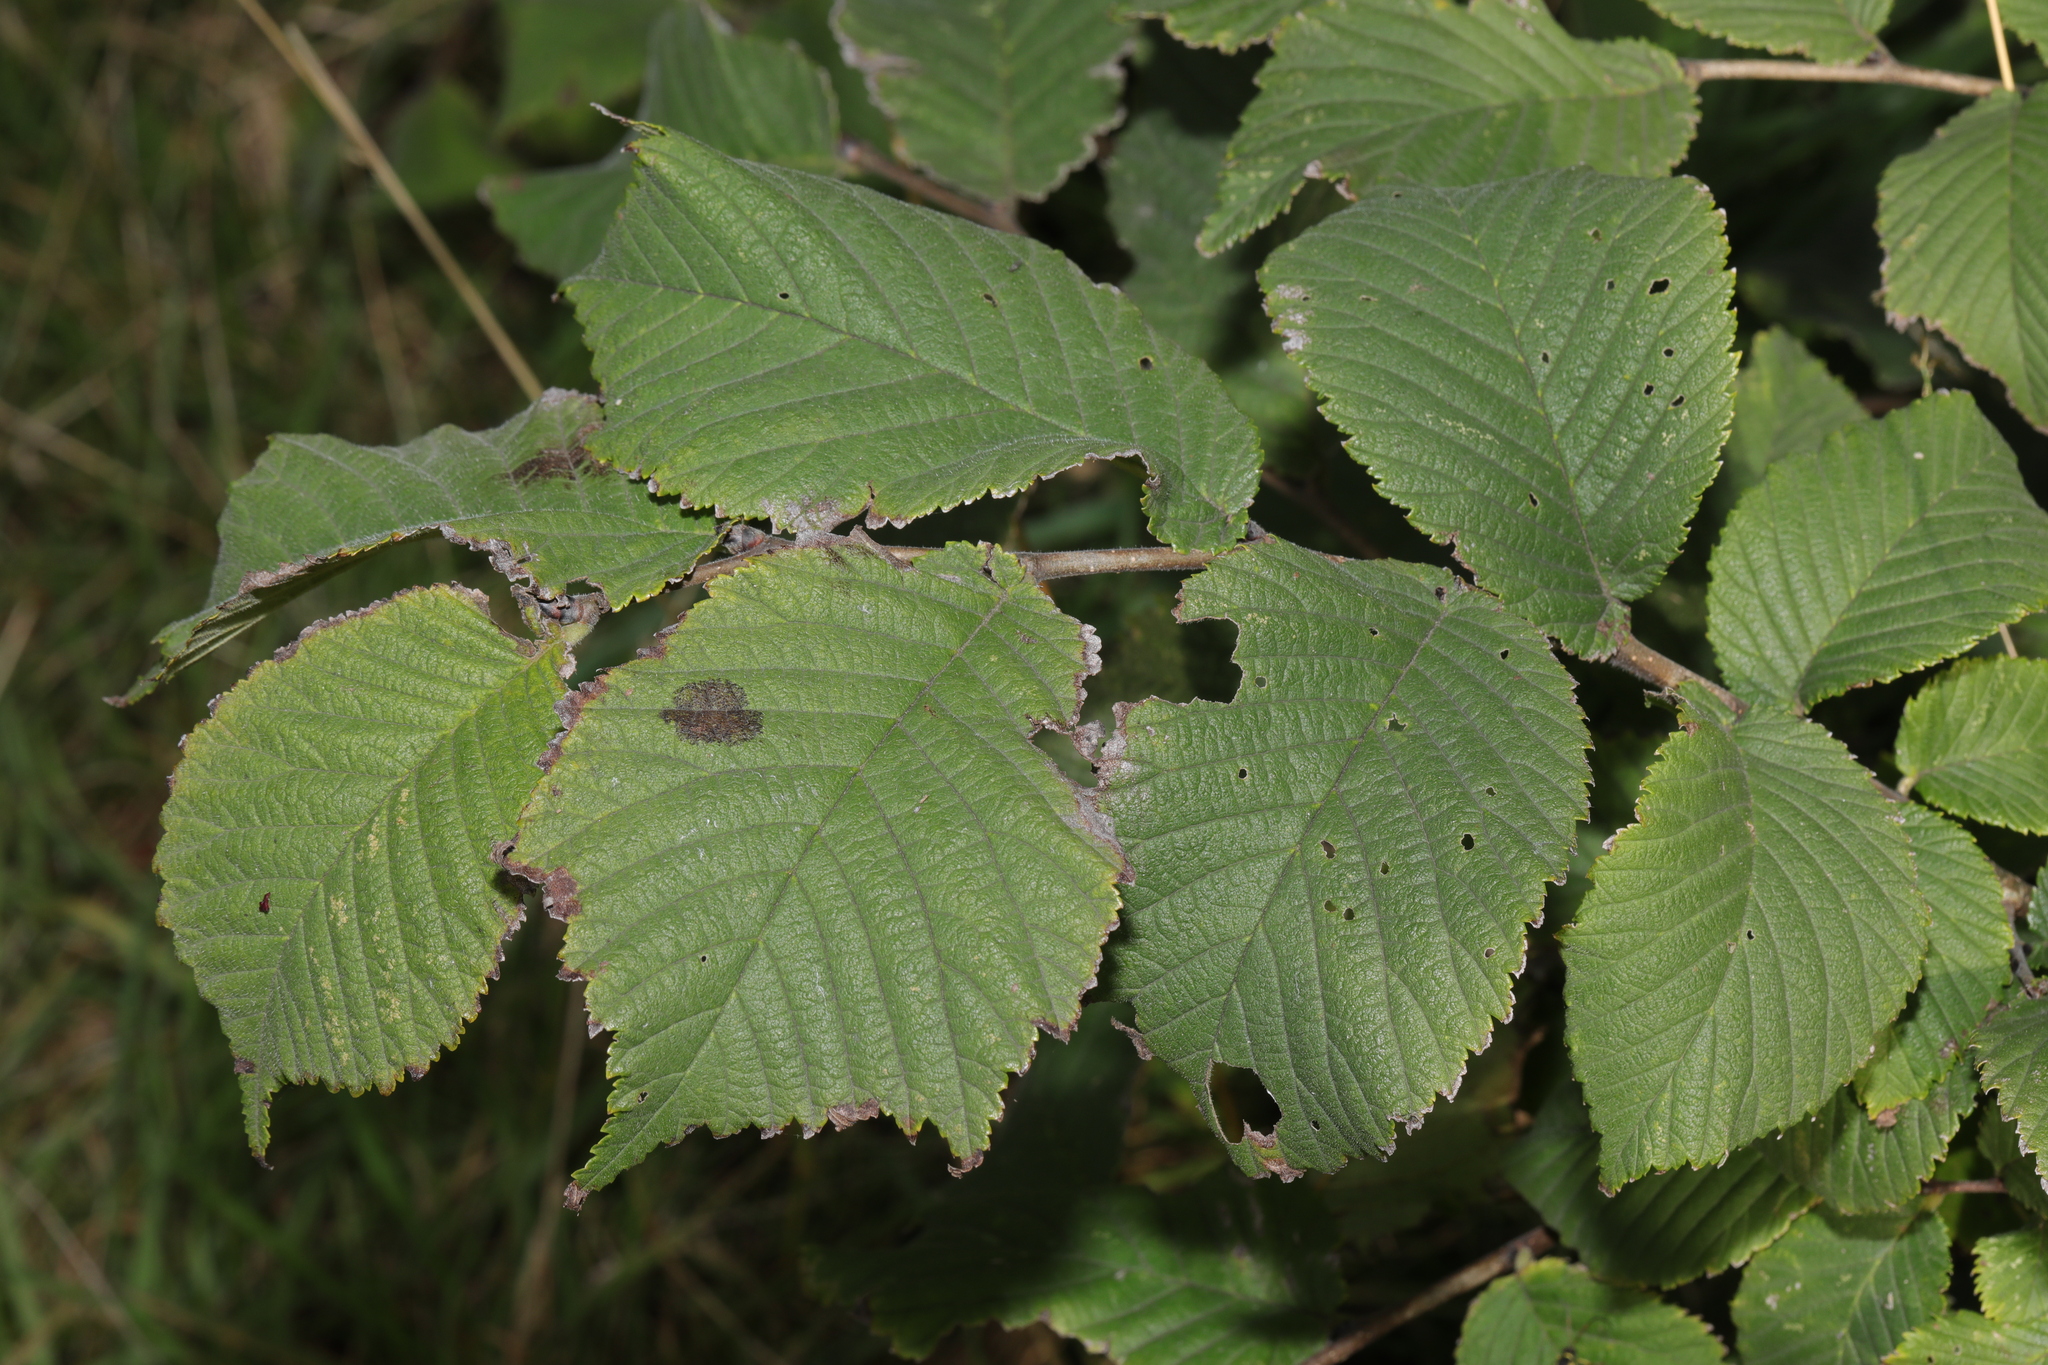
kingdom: Plantae
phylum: Tracheophyta
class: Magnoliopsida
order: Rosales
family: Ulmaceae
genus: Ulmus
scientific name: Ulmus glabra
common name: Wych elm
